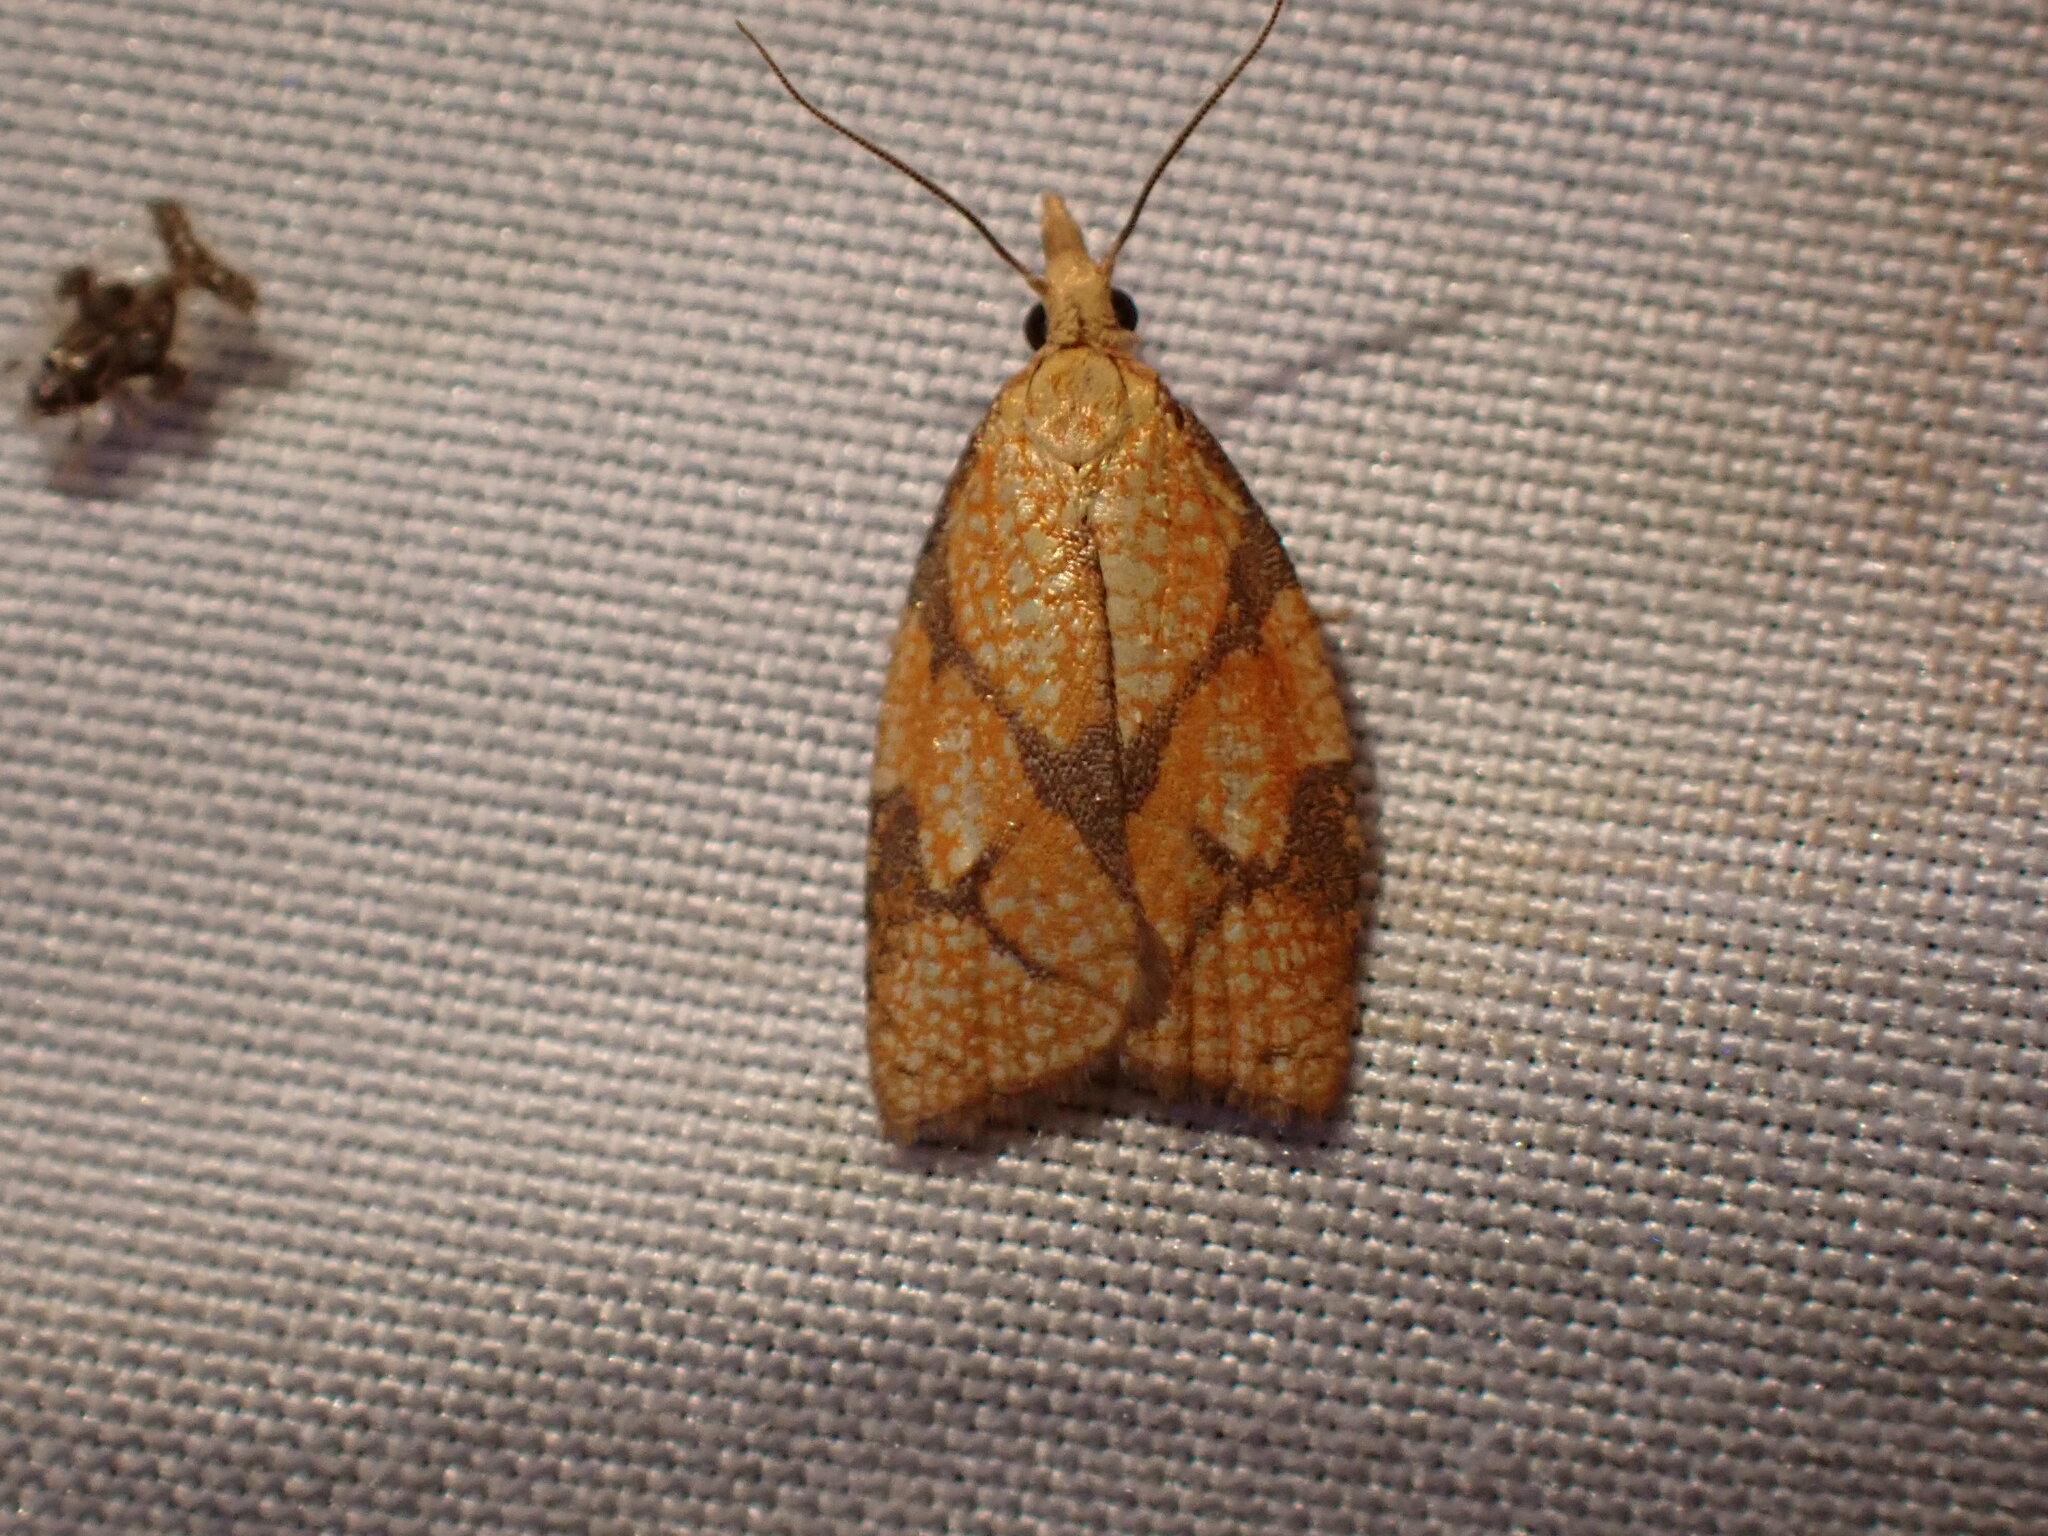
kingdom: Animalia
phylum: Arthropoda
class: Insecta
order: Lepidoptera
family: Tortricidae
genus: Cenopis
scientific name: Cenopis reticulatana
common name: Reticulated fruitworm moth
